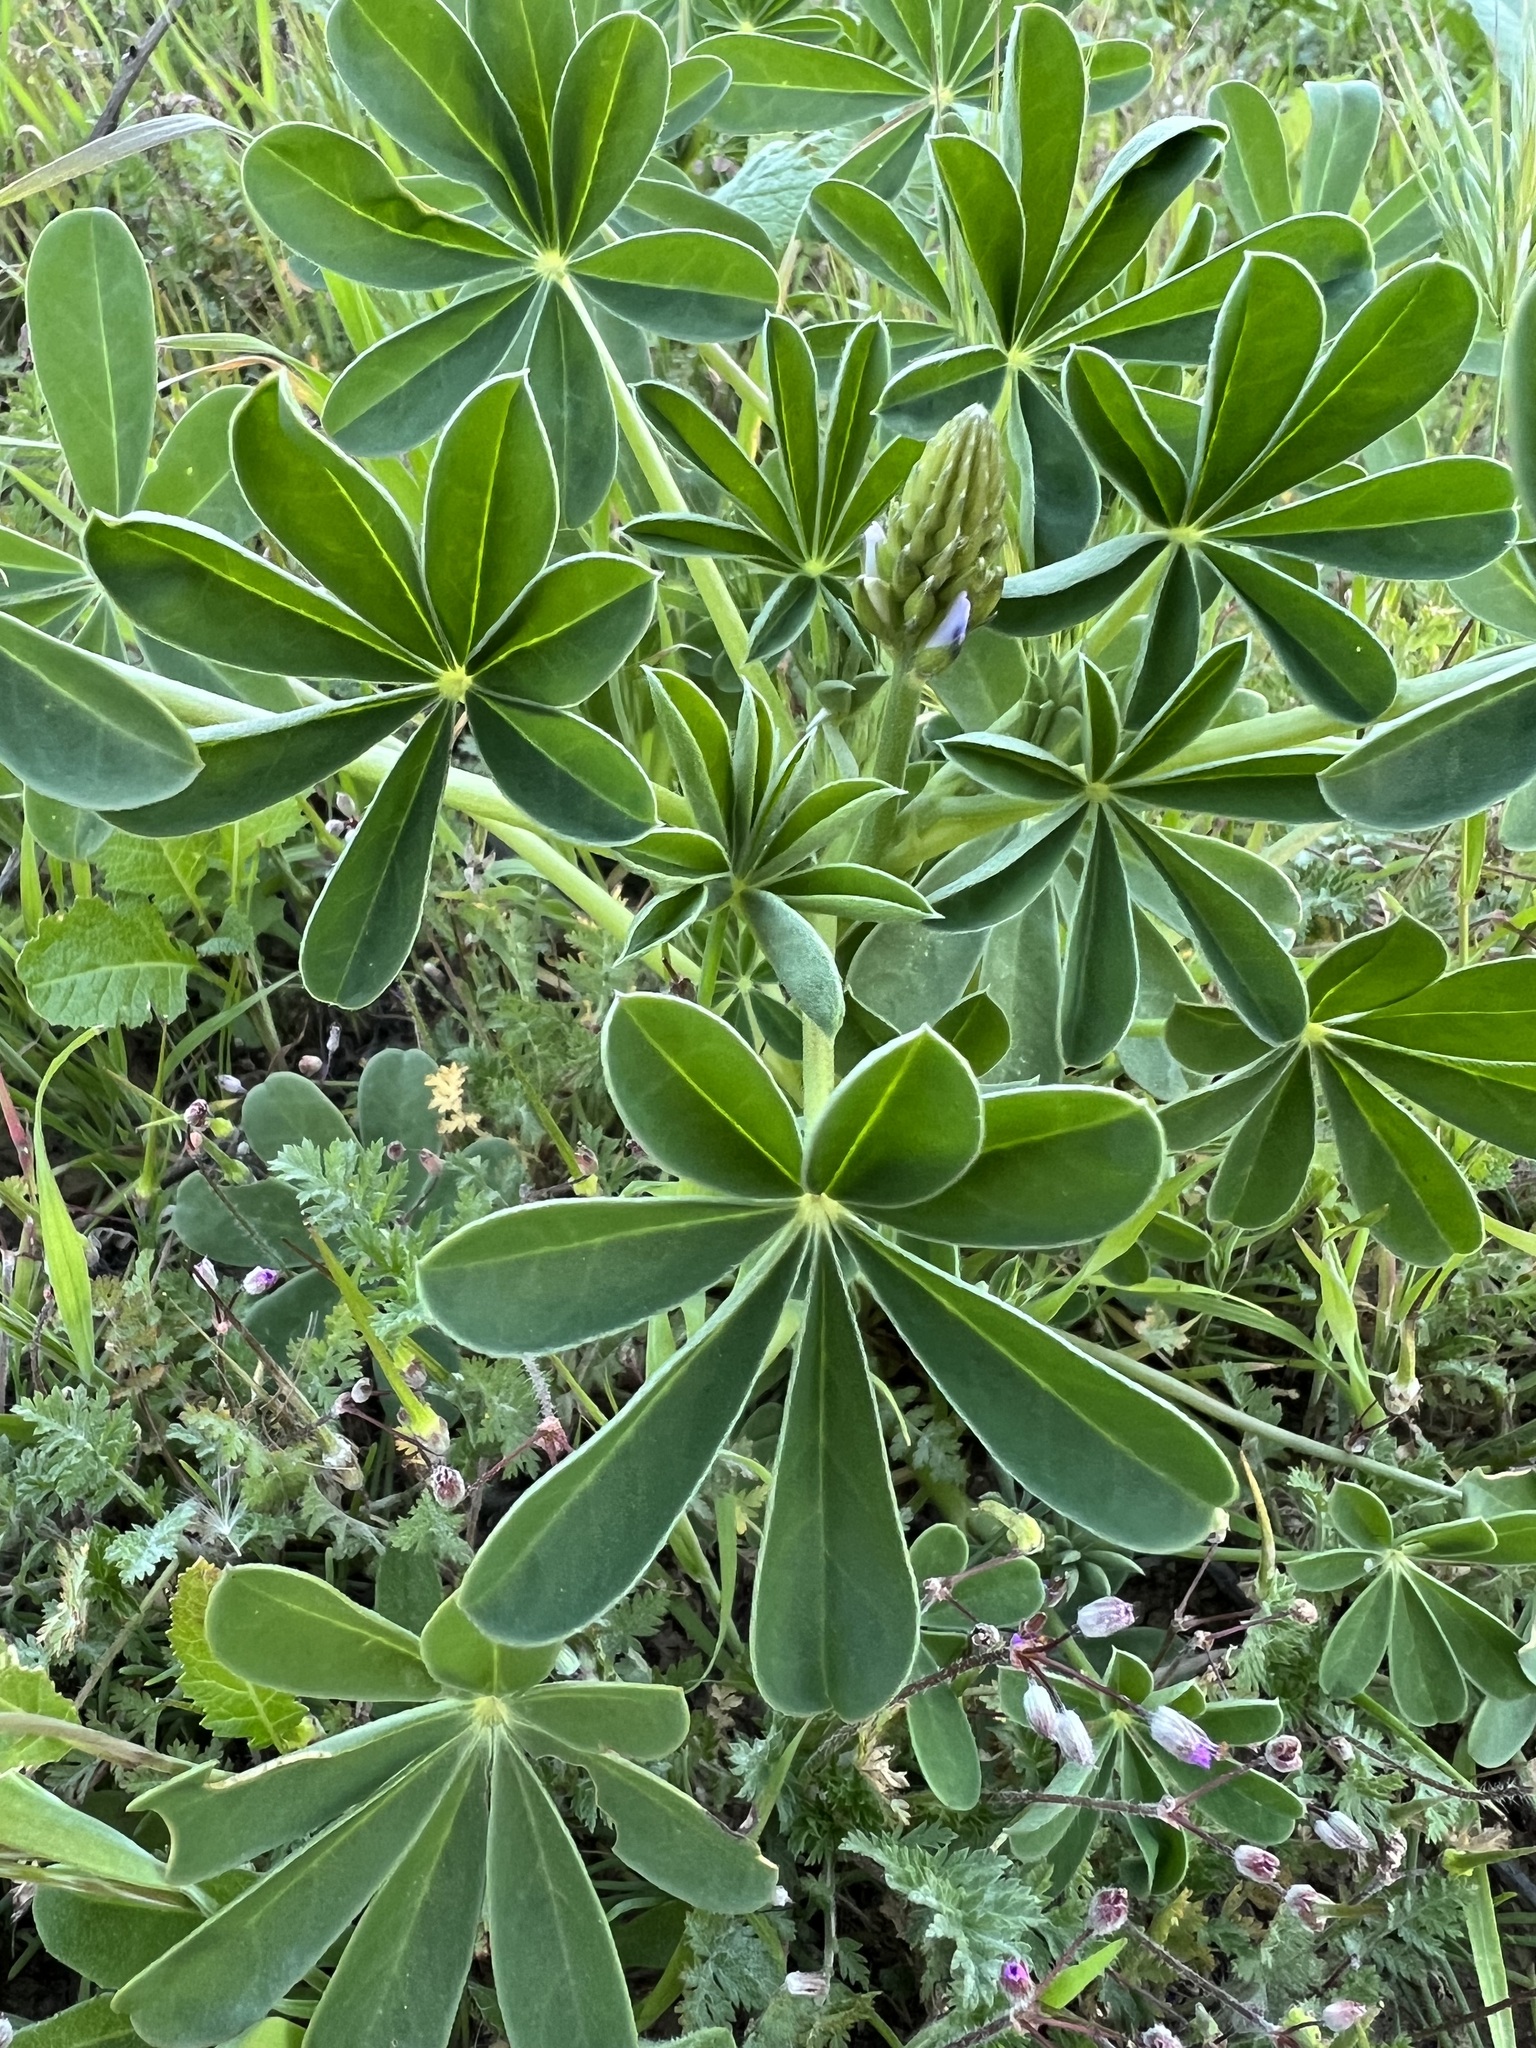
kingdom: Plantae
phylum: Tracheophyta
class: Magnoliopsida
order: Fabales
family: Fabaceae
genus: Lupinus
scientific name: Lupinus succulentus
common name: Arroyo lupine
